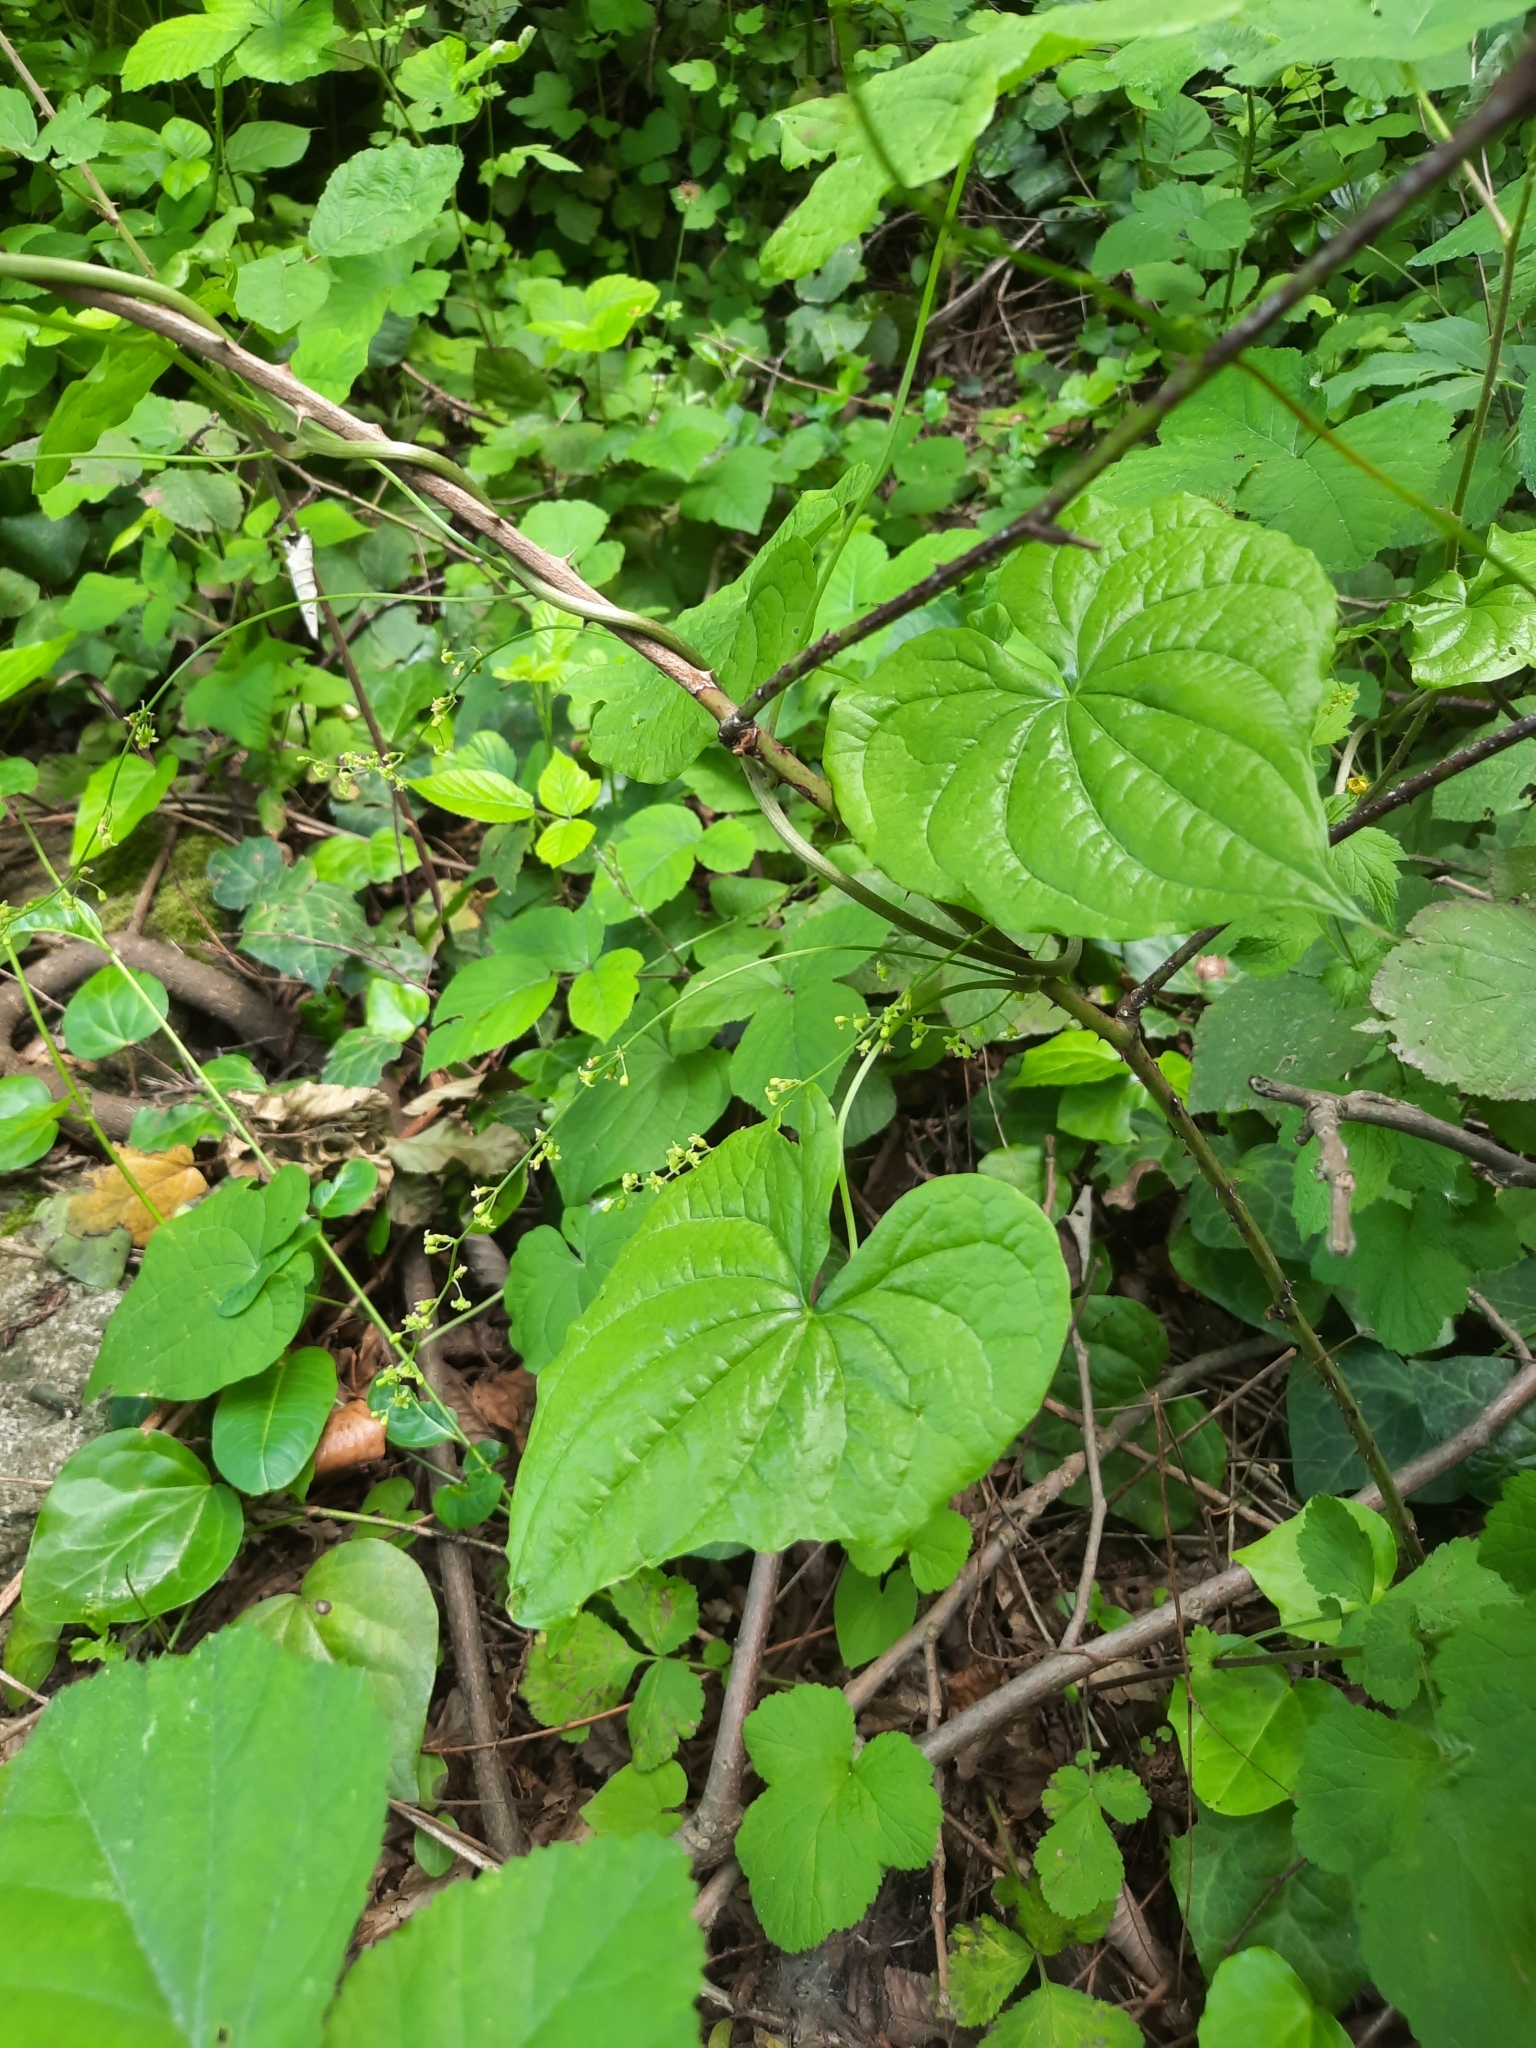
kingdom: Plantae
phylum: Tracheophyta
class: Liliopsida
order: Dioscoreales
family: Dioscoreaceae
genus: Dioscorea
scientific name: Dioscorea communis
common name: Black-bindweed
